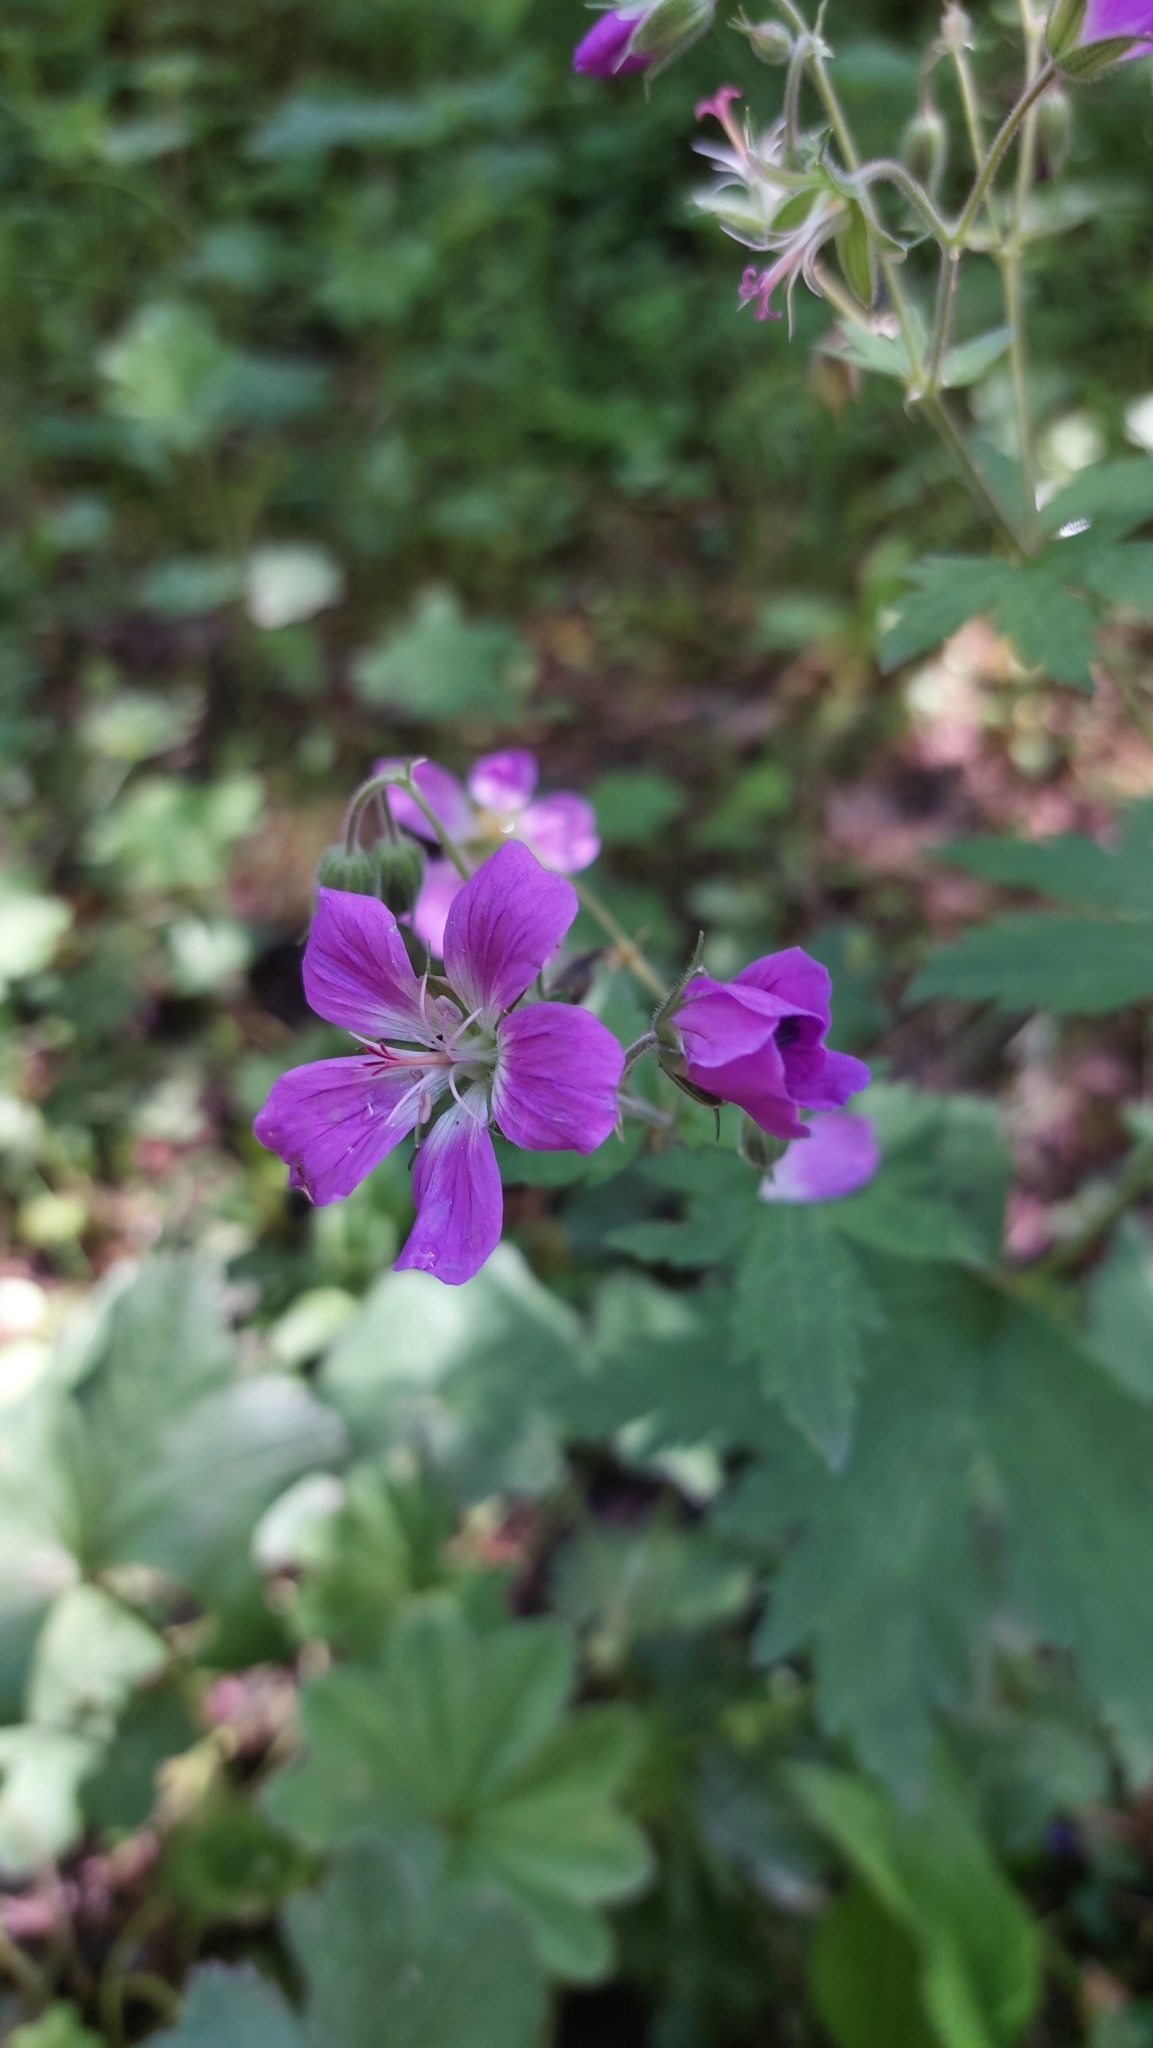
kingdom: Plantae
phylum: Tracheophyta
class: Magnoliopsida
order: Geraniales
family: Geraniaceae
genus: Geranium
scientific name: Geranium sylvaticum
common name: Wood crane's-bill
